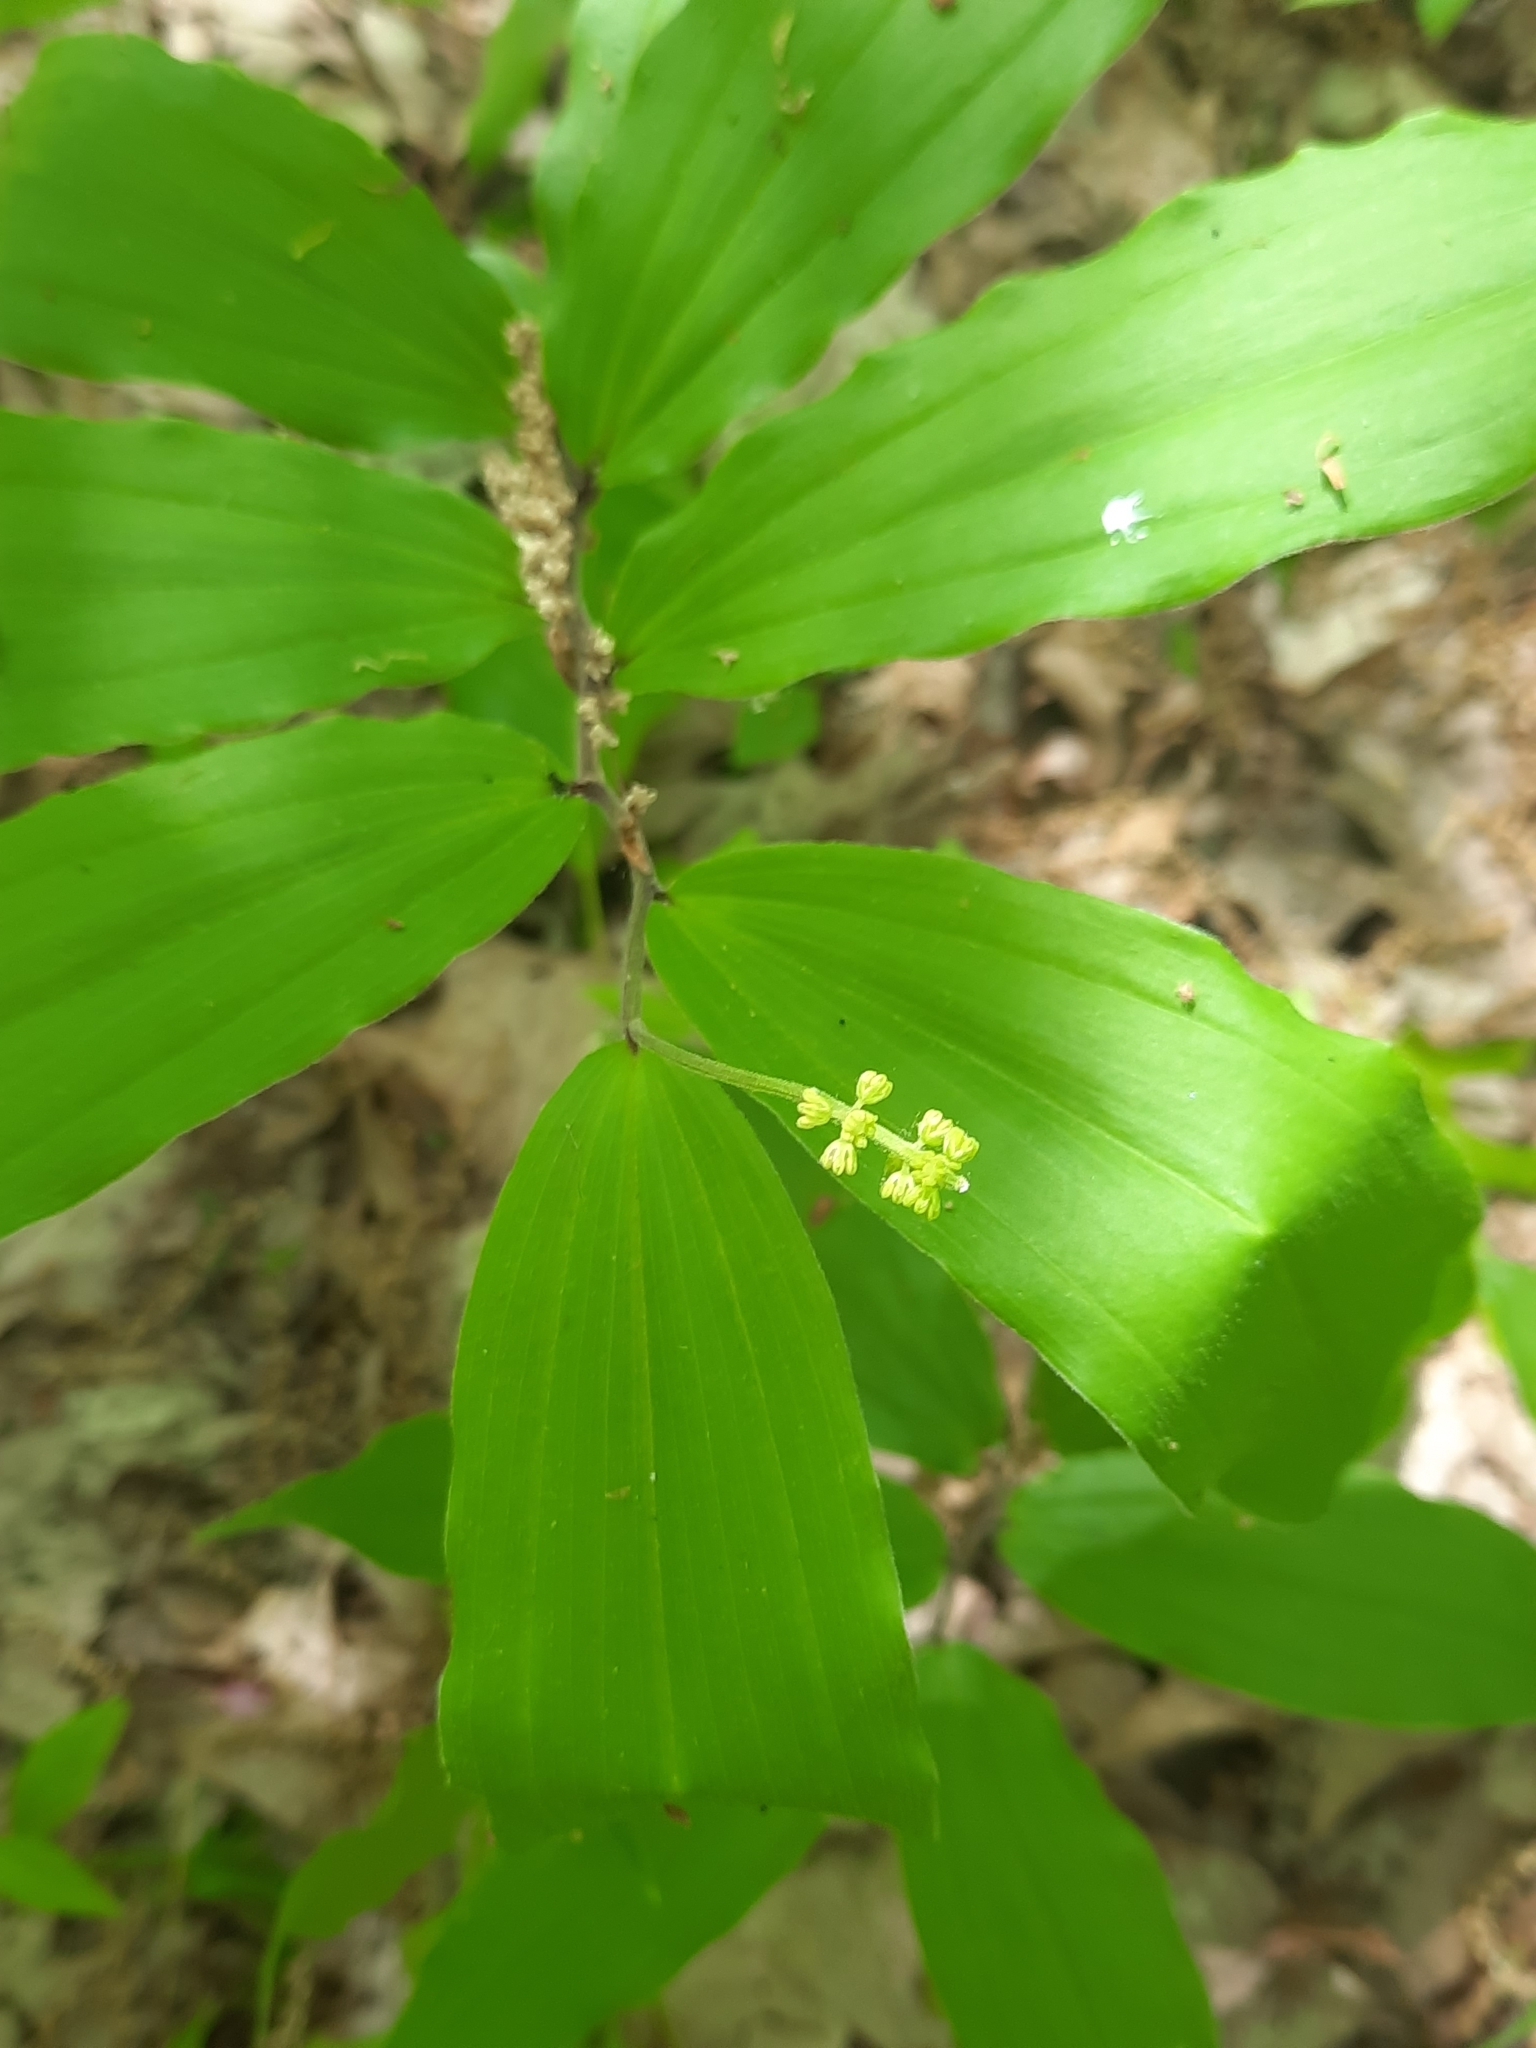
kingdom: Plantae
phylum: Tracheophyta
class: Liliopsida
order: Asparagales
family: Asparagaceae
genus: Maianthemum
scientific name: Maianthemum racemosum
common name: False spikenard
